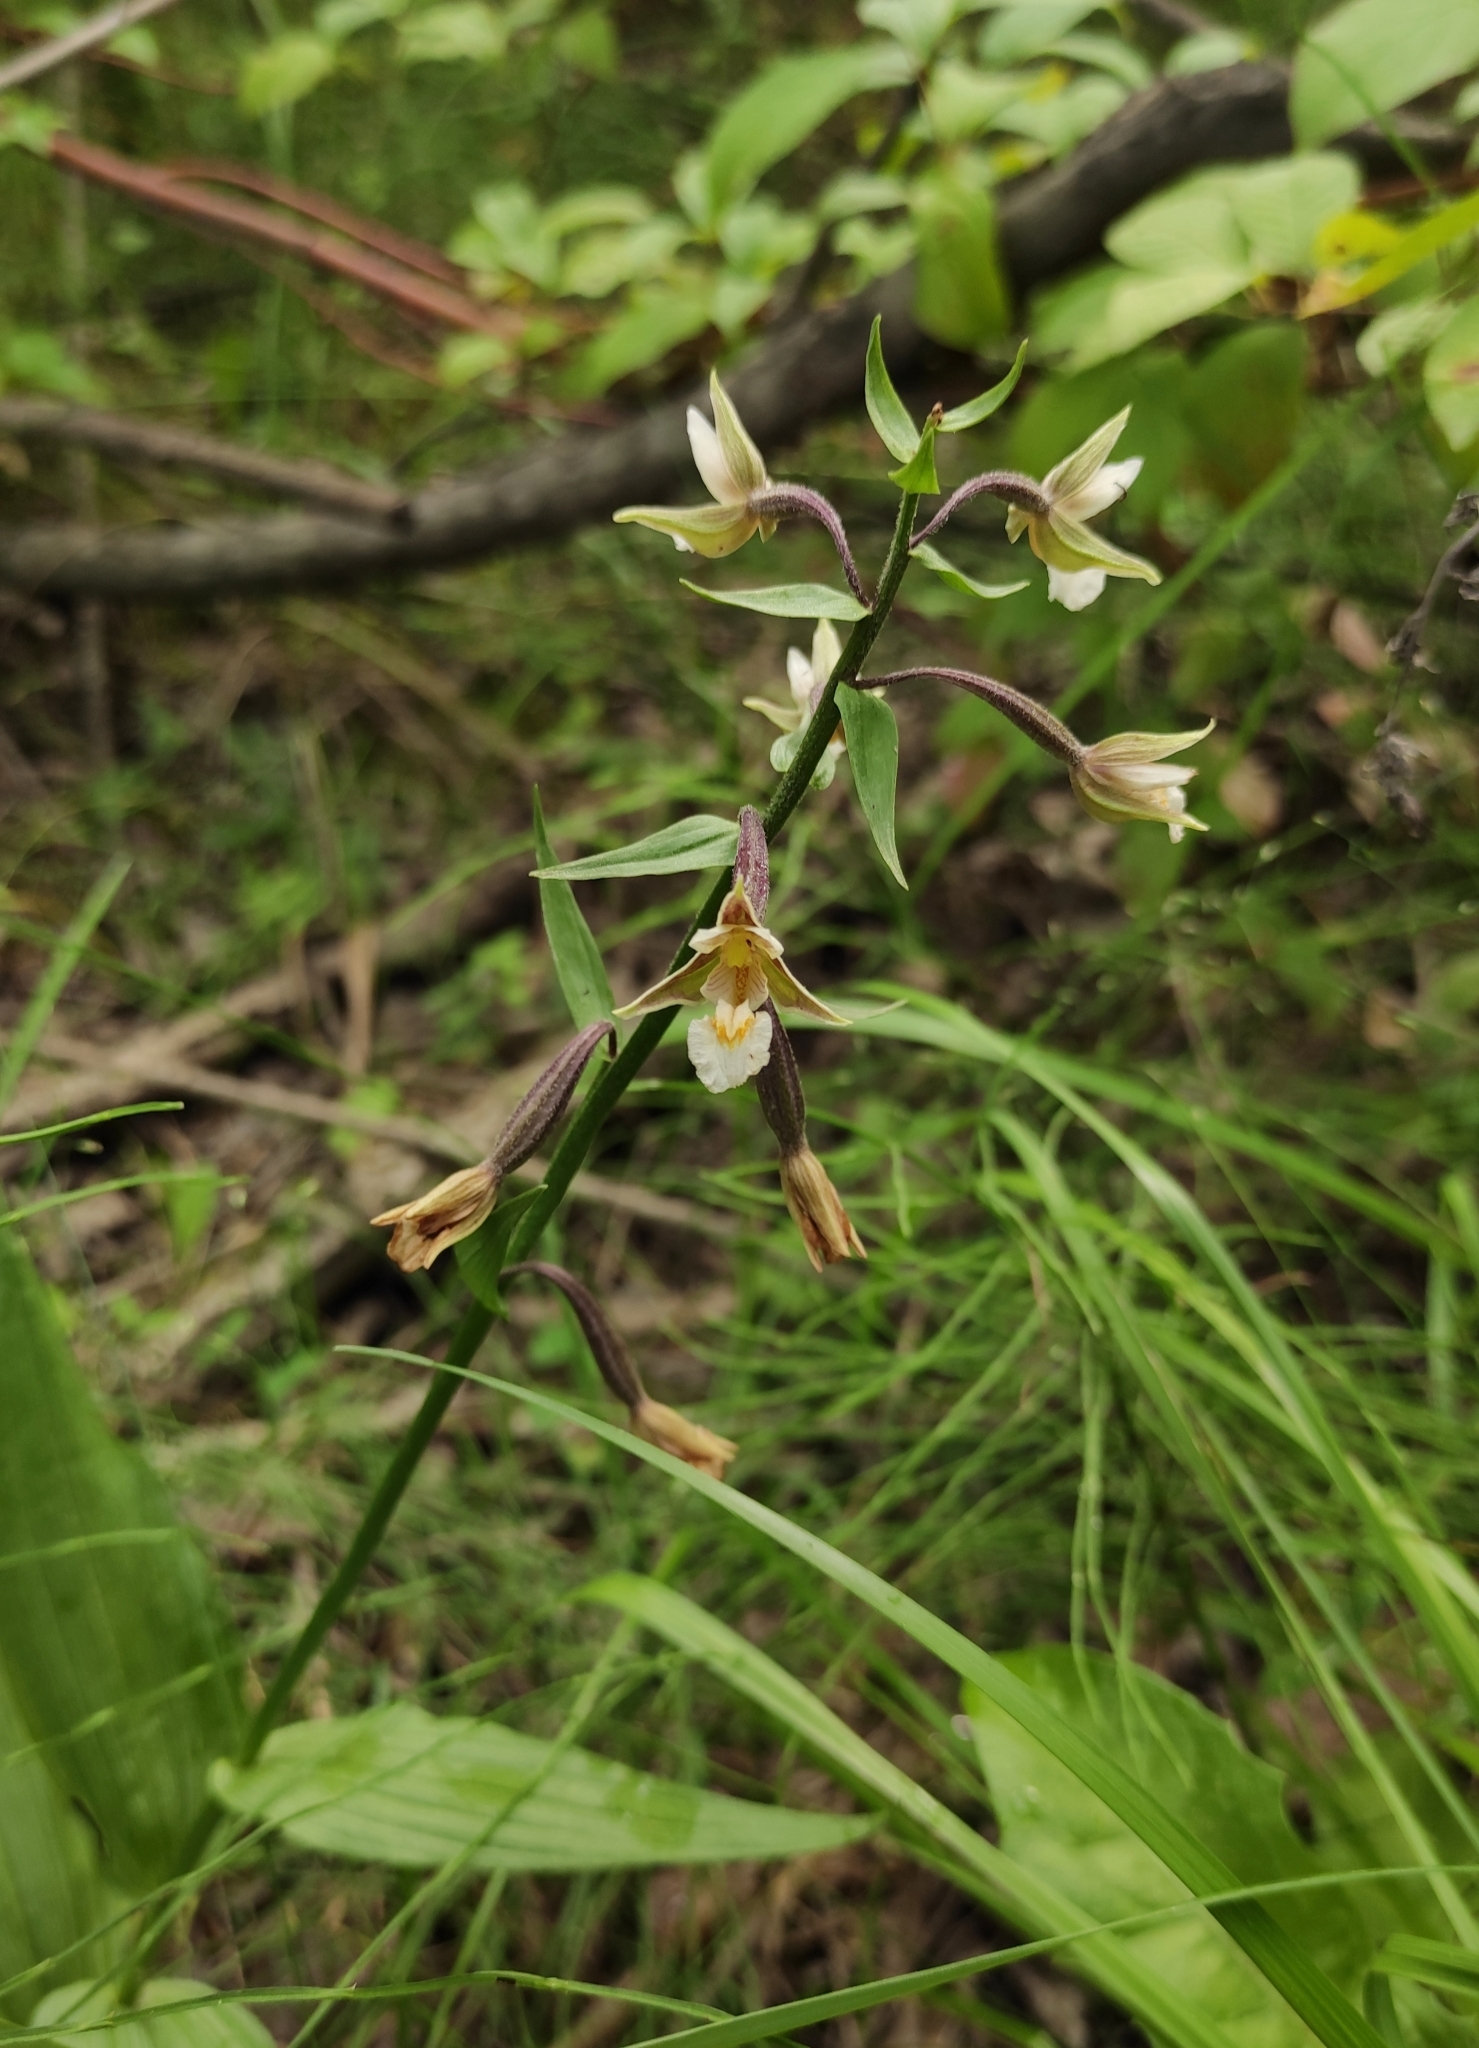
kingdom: Plantae
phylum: Tracheophyta
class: Liliopsida
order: Asparagales
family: Orchidaceae
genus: Epipactis
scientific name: Epipactis palustris
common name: Marsh helleborine
